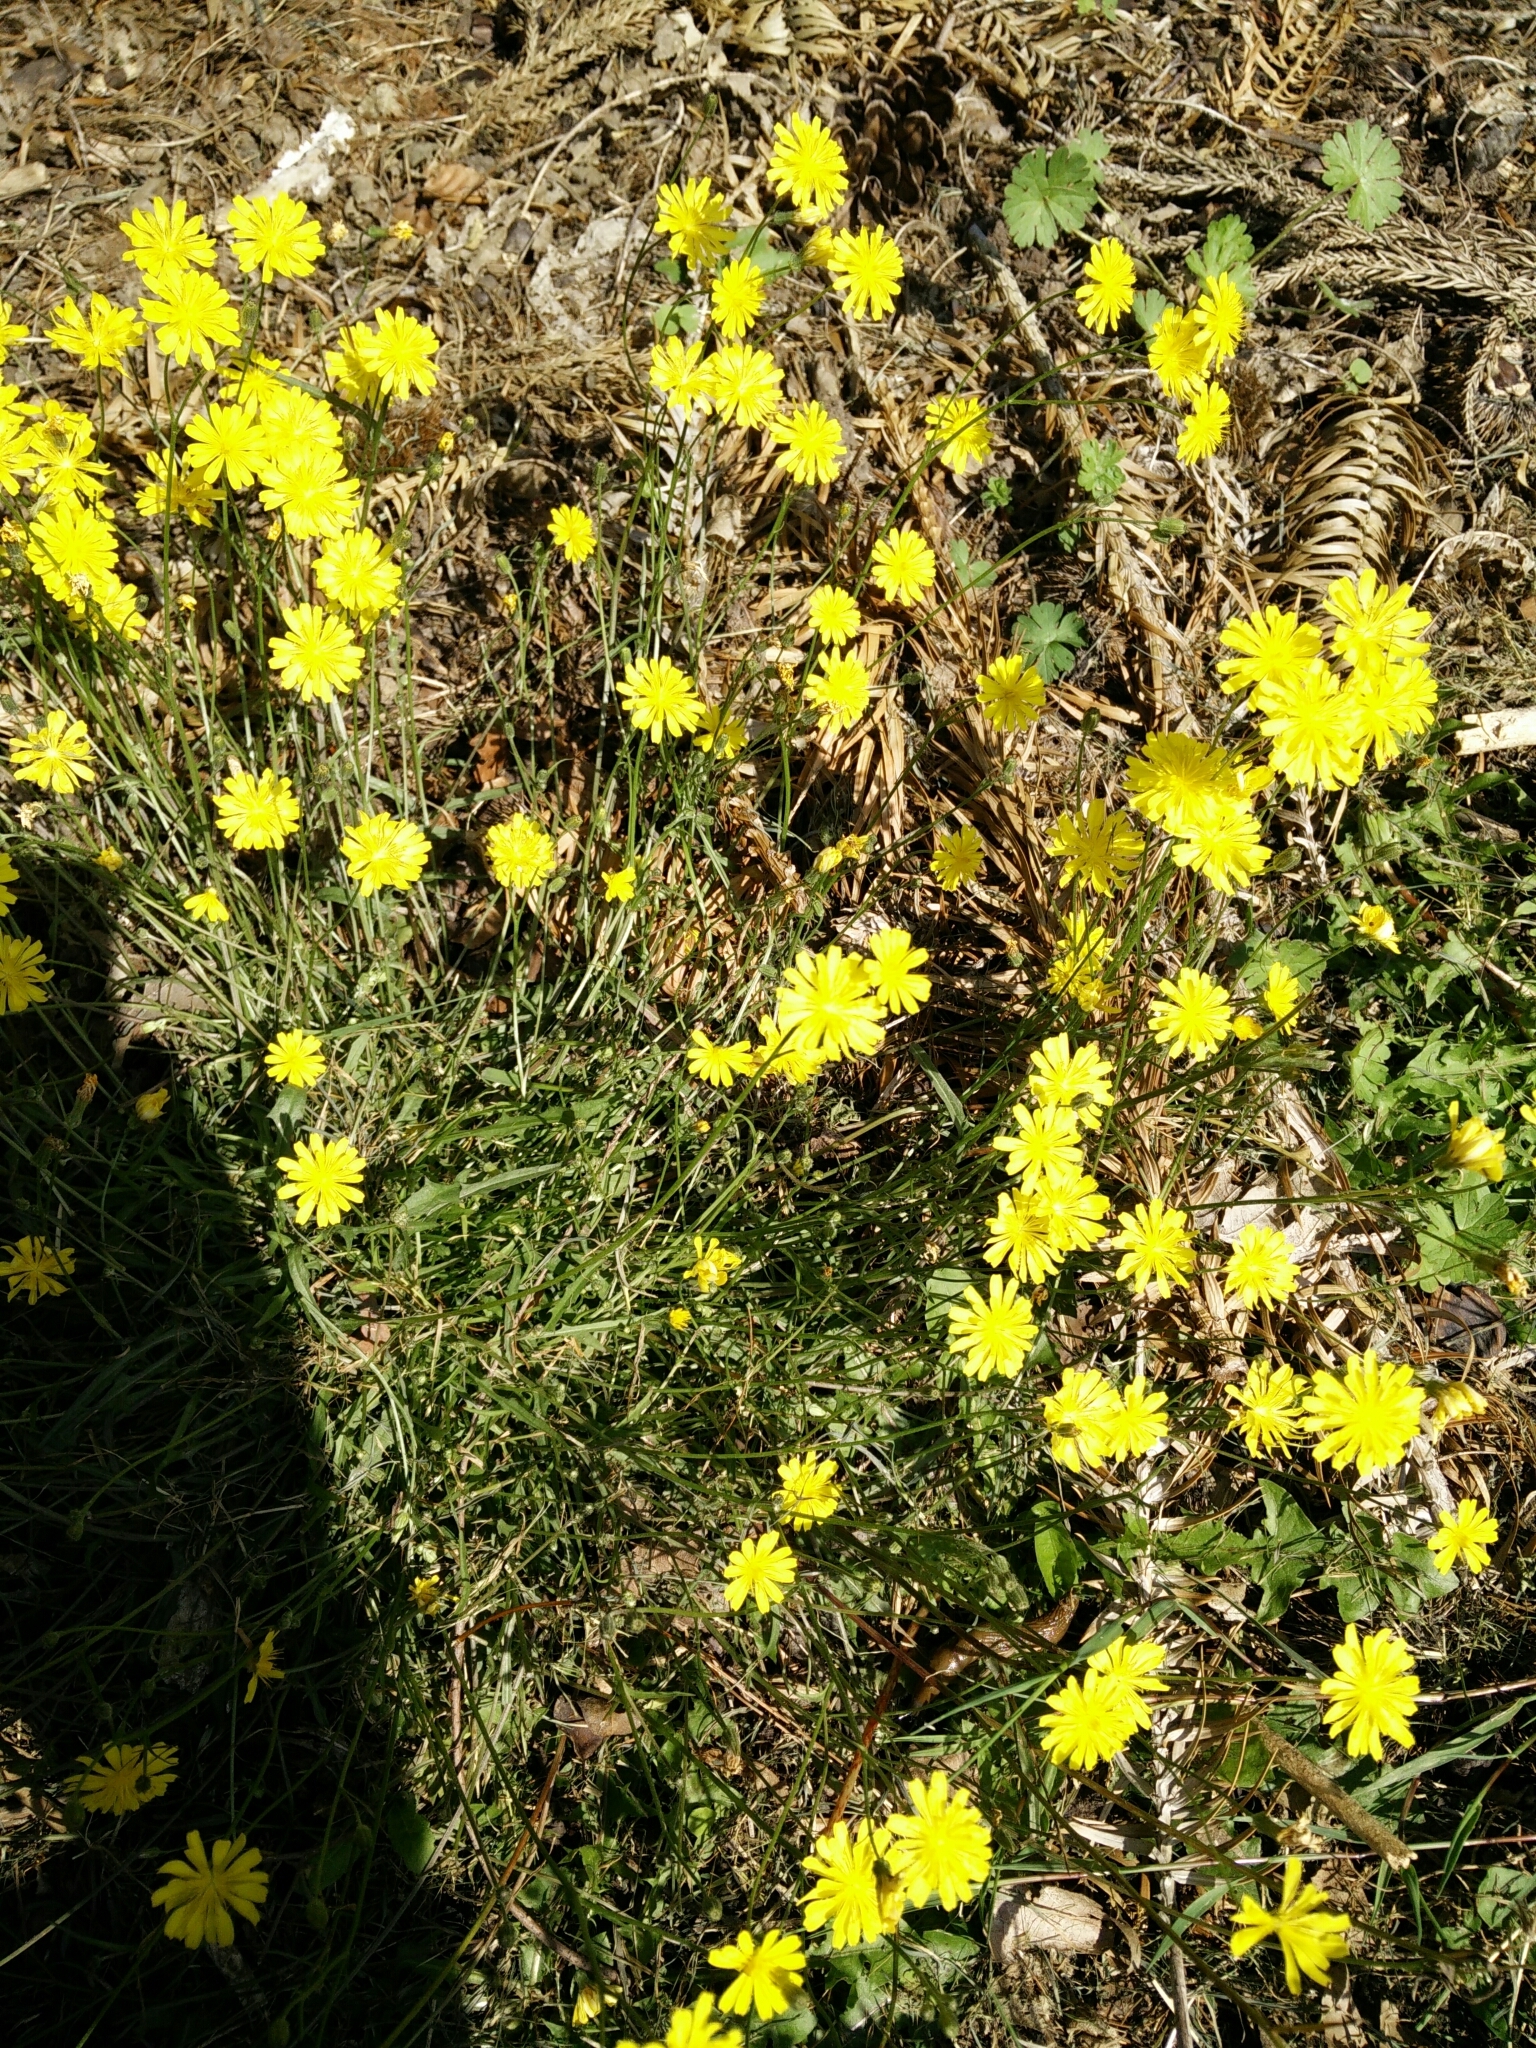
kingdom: Plantae
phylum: Tracheophyta
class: Magnoliopsida
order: Asterales
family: Asteraceae
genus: Crepis
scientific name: Crepis capillaris
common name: Smooth hawksbeard
